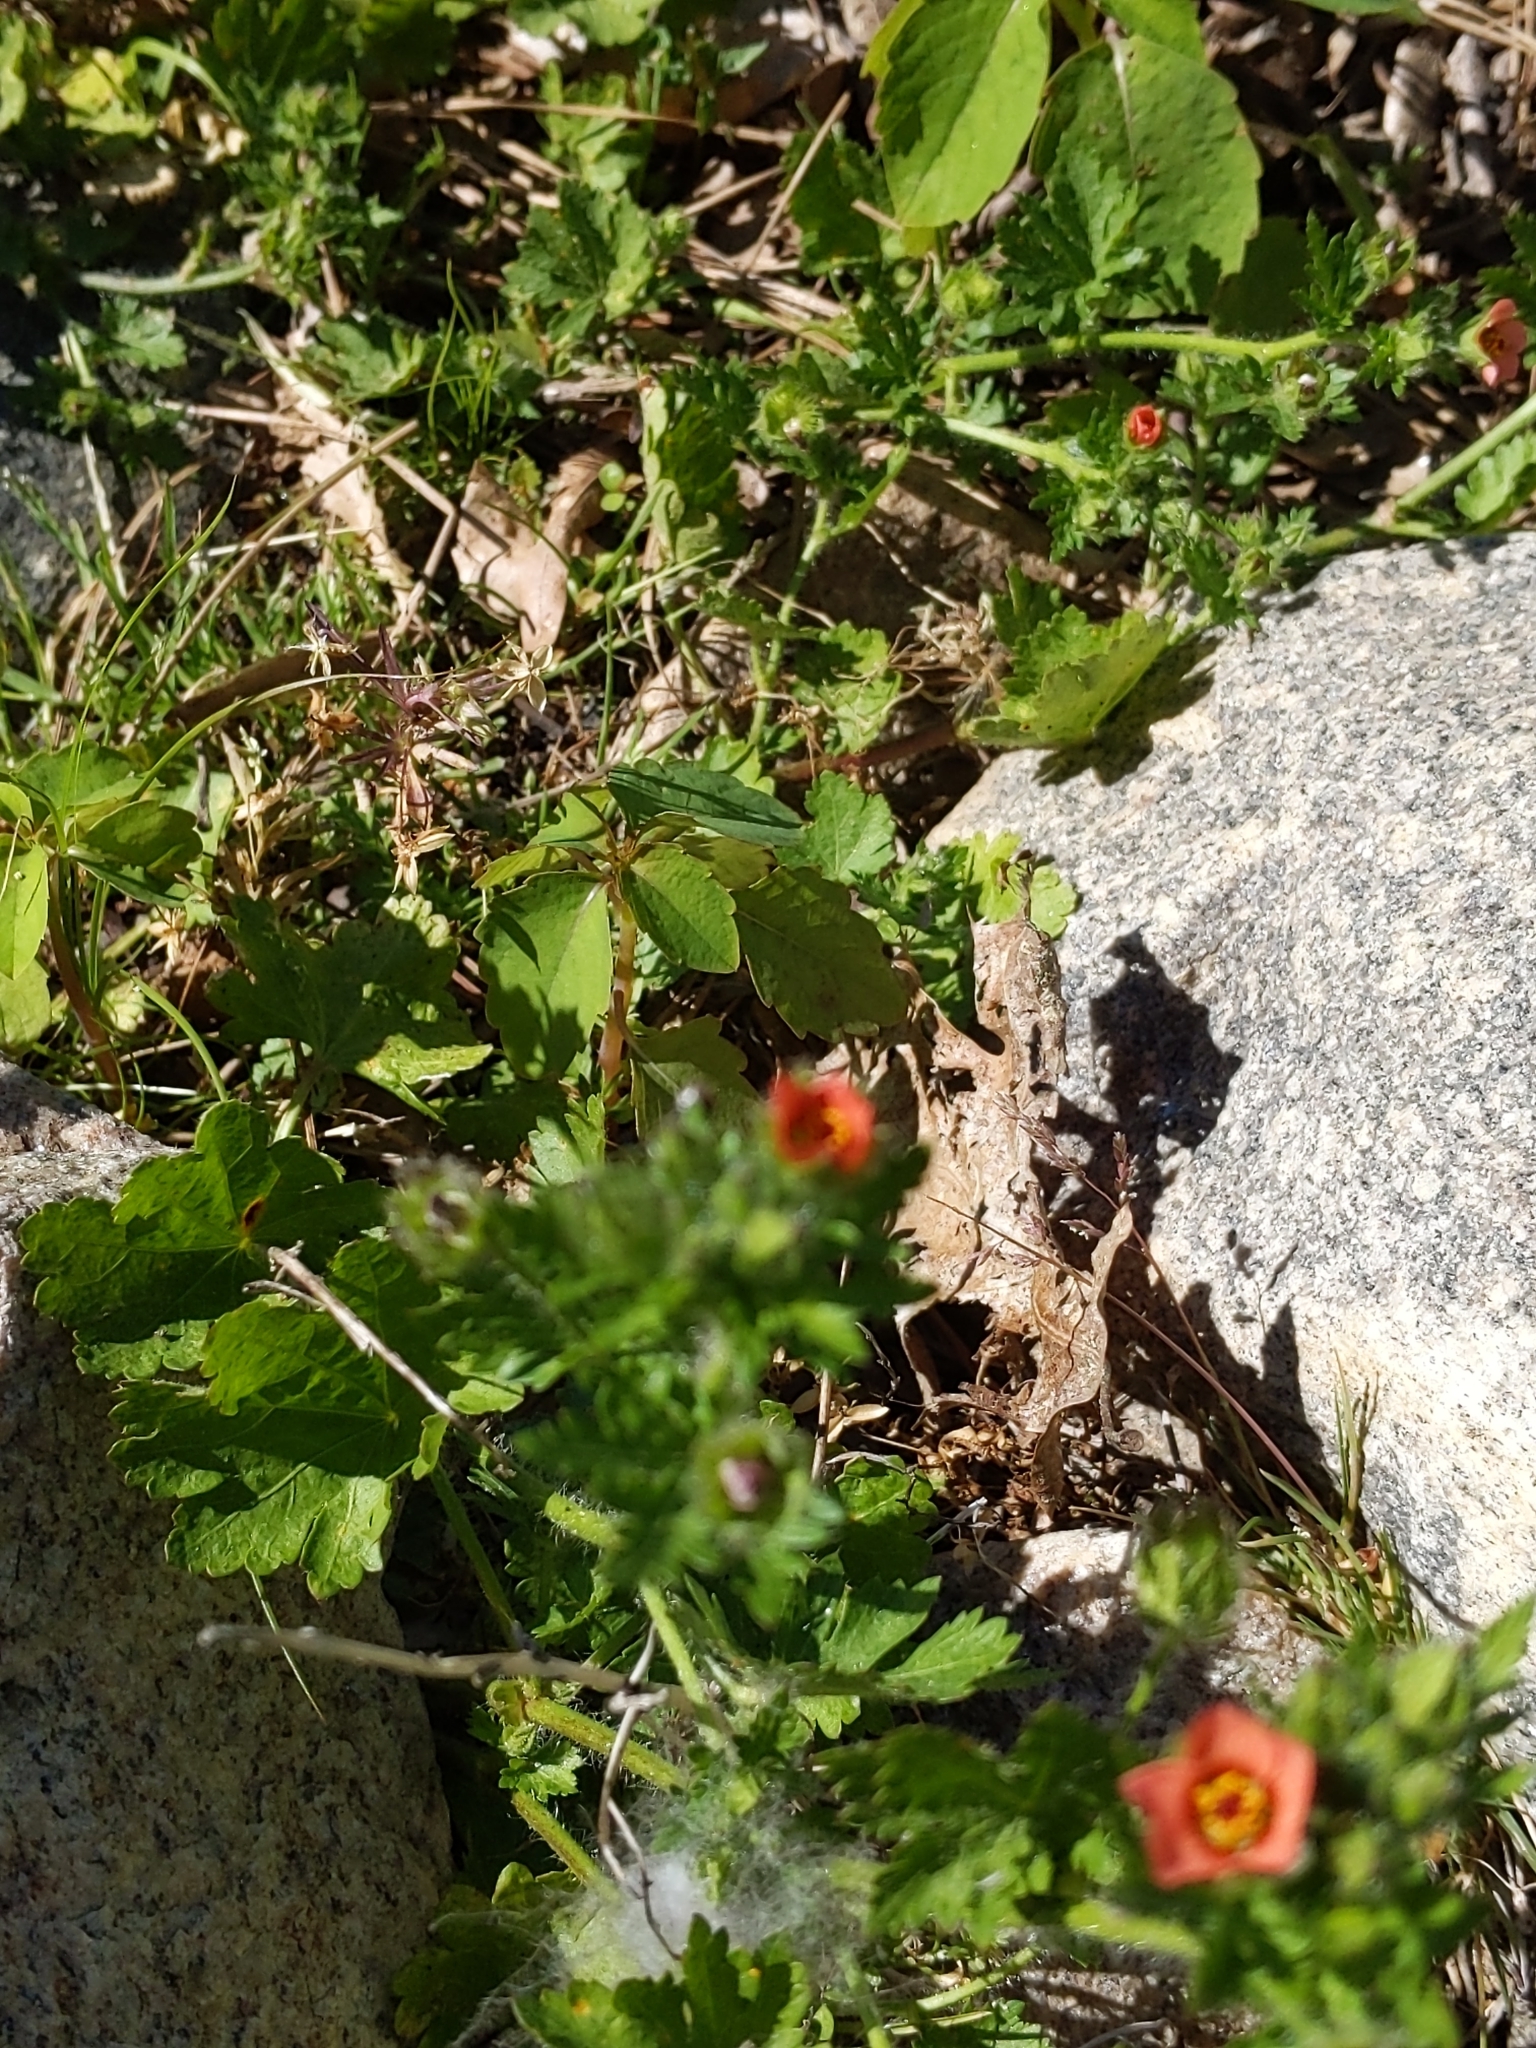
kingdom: Plantae
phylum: Tracheophyta
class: Magnoliopsida
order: Malvales
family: Malvaceae
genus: Modiola
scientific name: Modiola caroliniana
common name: Carolina bristlemallow
